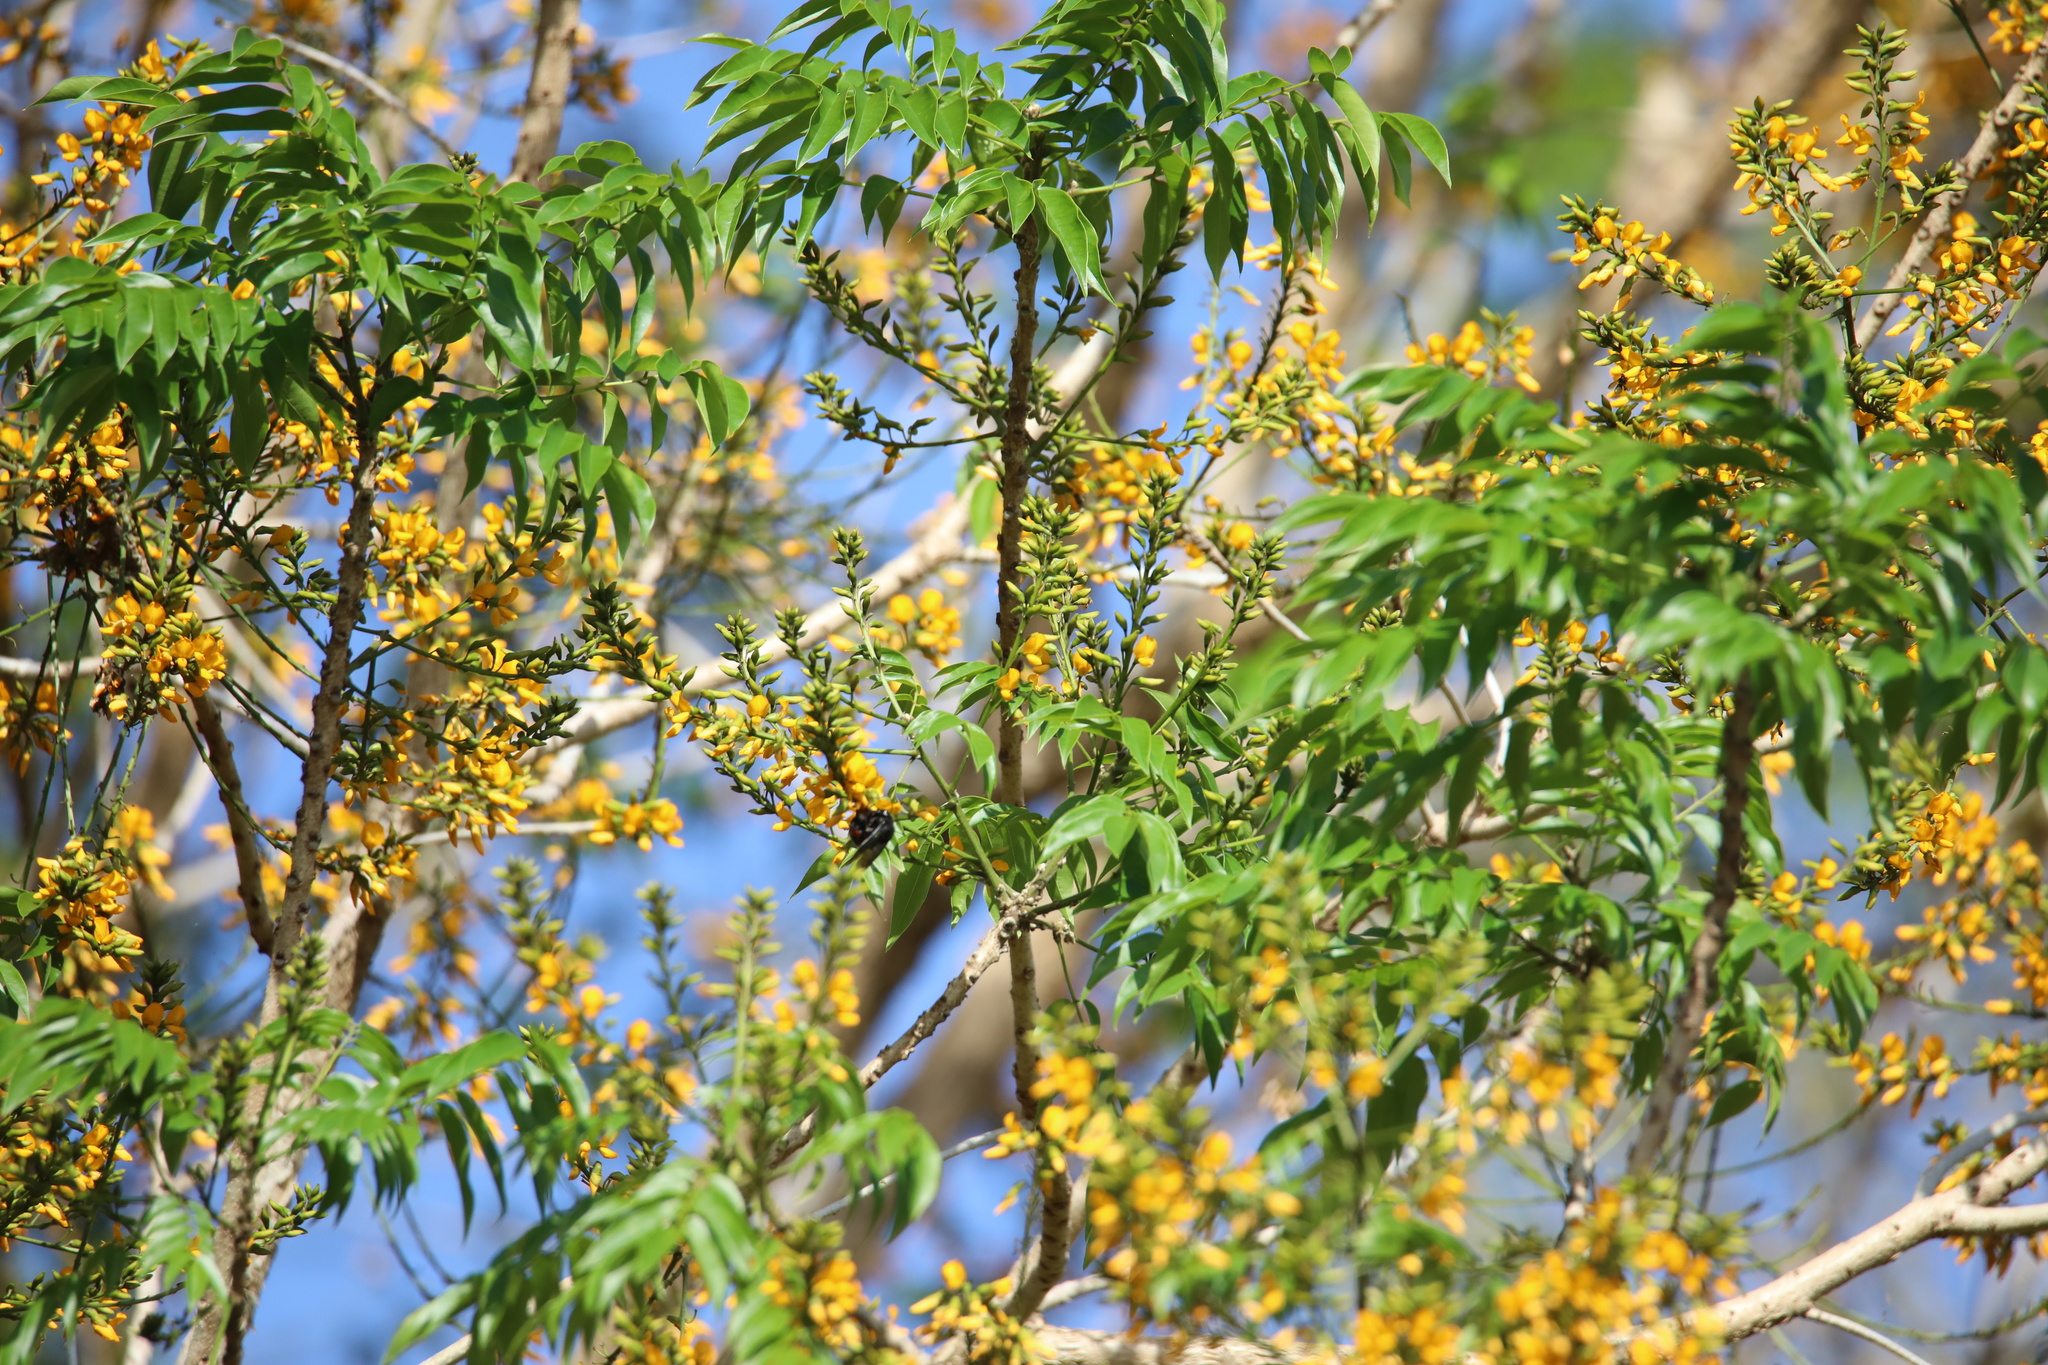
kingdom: Plantae
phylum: Tracheophyta
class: Magnoliopsida
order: Fabales
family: Fabaceae
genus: Fissicalyx
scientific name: Fissicalyx fendleri
